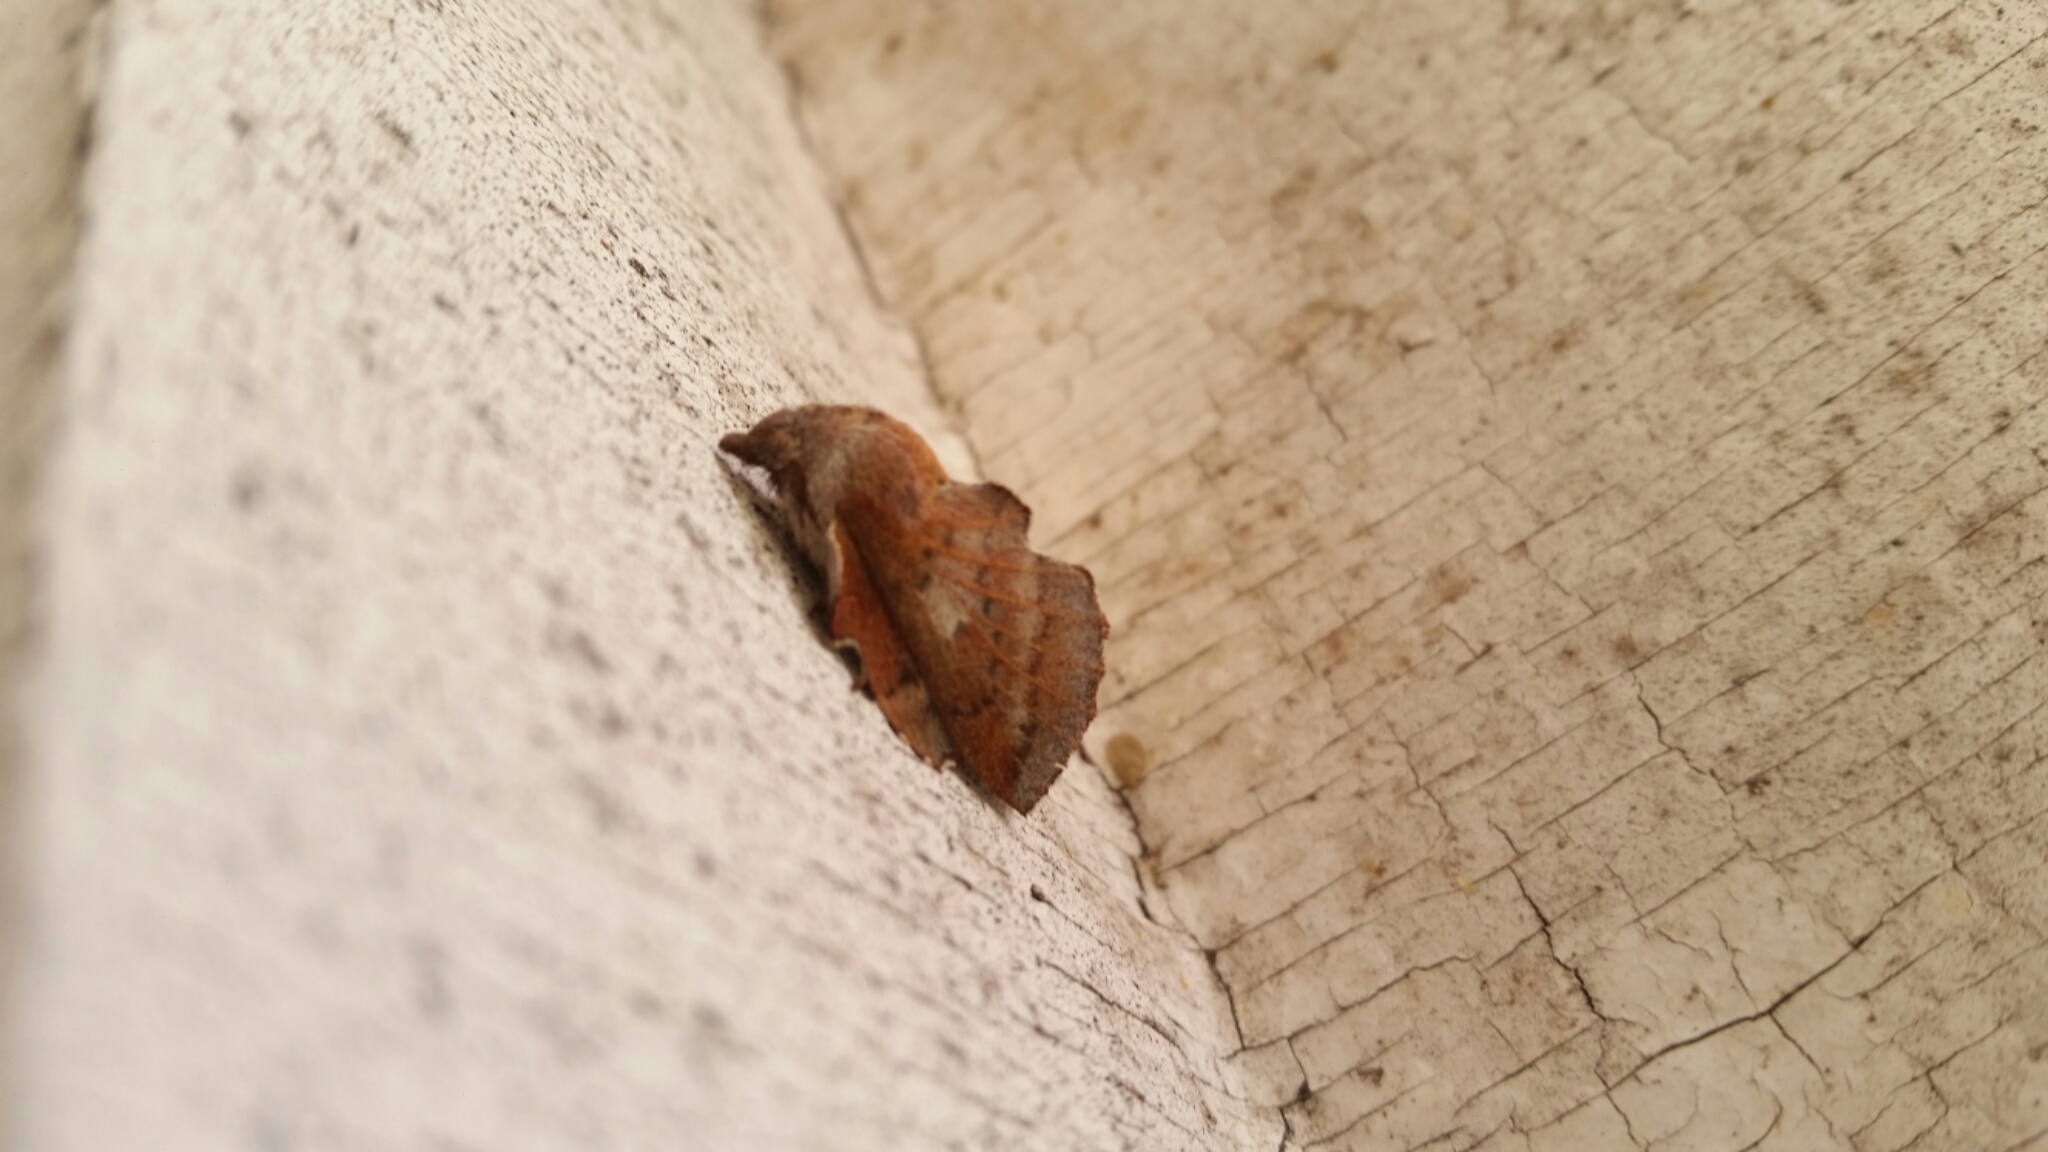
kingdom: Animalia
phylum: Arthropoda
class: Insecta
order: Lepidoptera
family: Lasiocampidae
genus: Phyllodesma
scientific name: Phyllodesma americana
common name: American lappet moth
